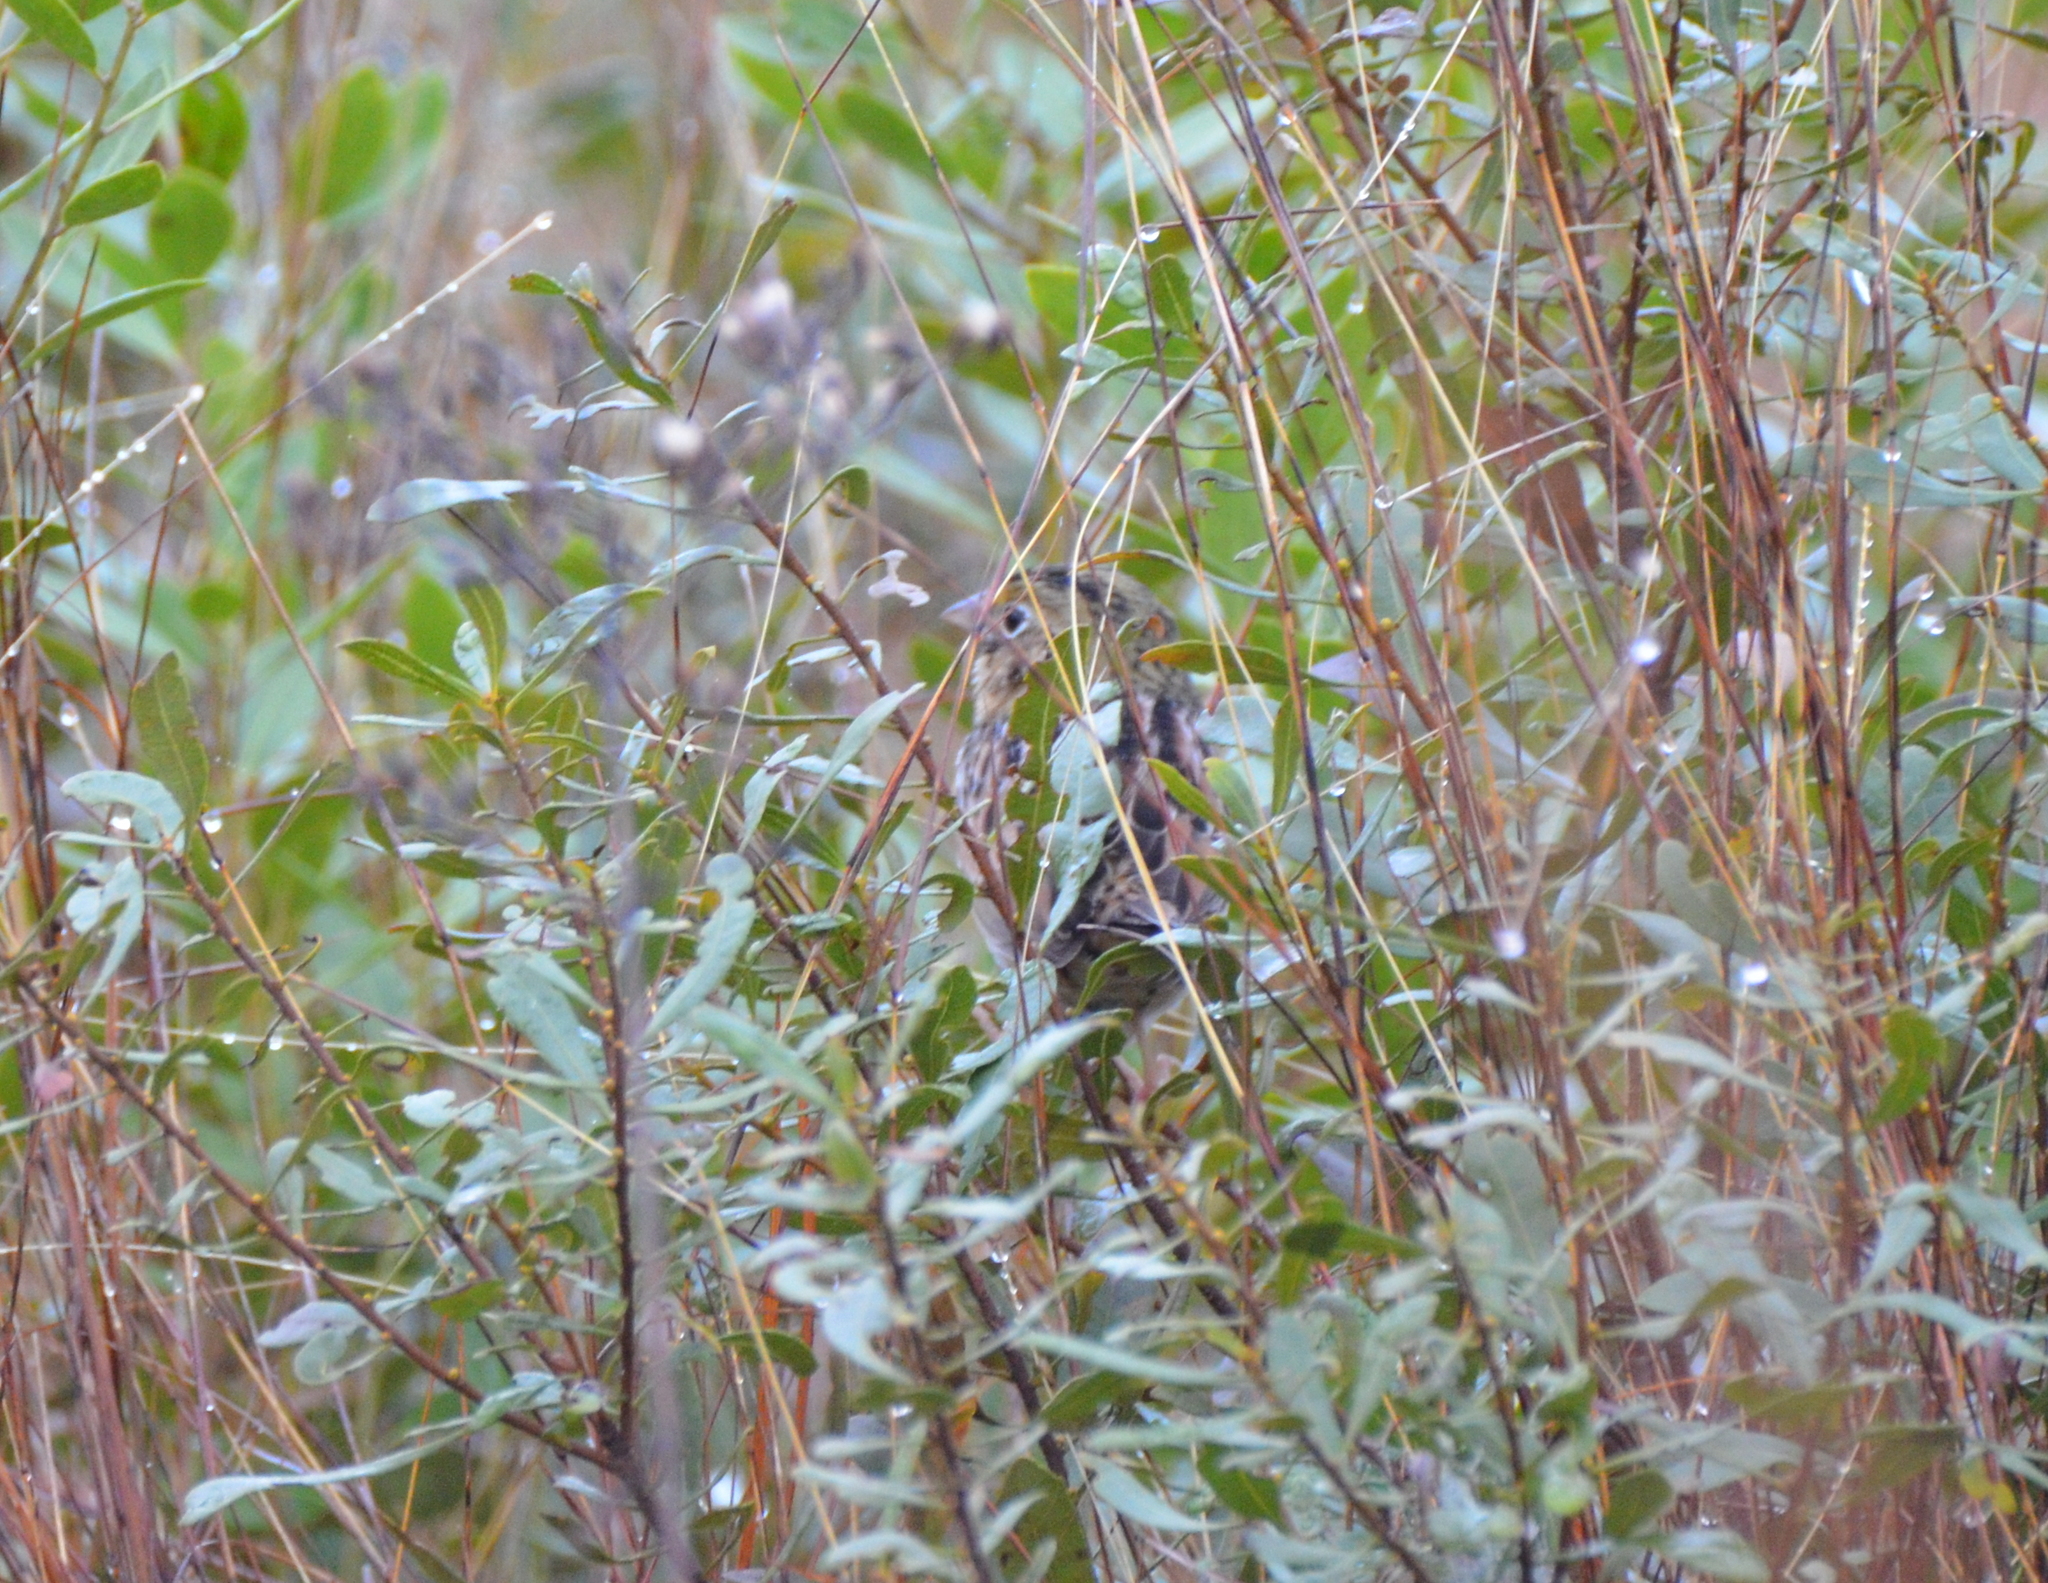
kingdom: Animalia
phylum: Chordata
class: Aves
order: Passeriformes
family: Passerellidae
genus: Centronyx
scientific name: Centronyx henslowii
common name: Henslow's sparrow
